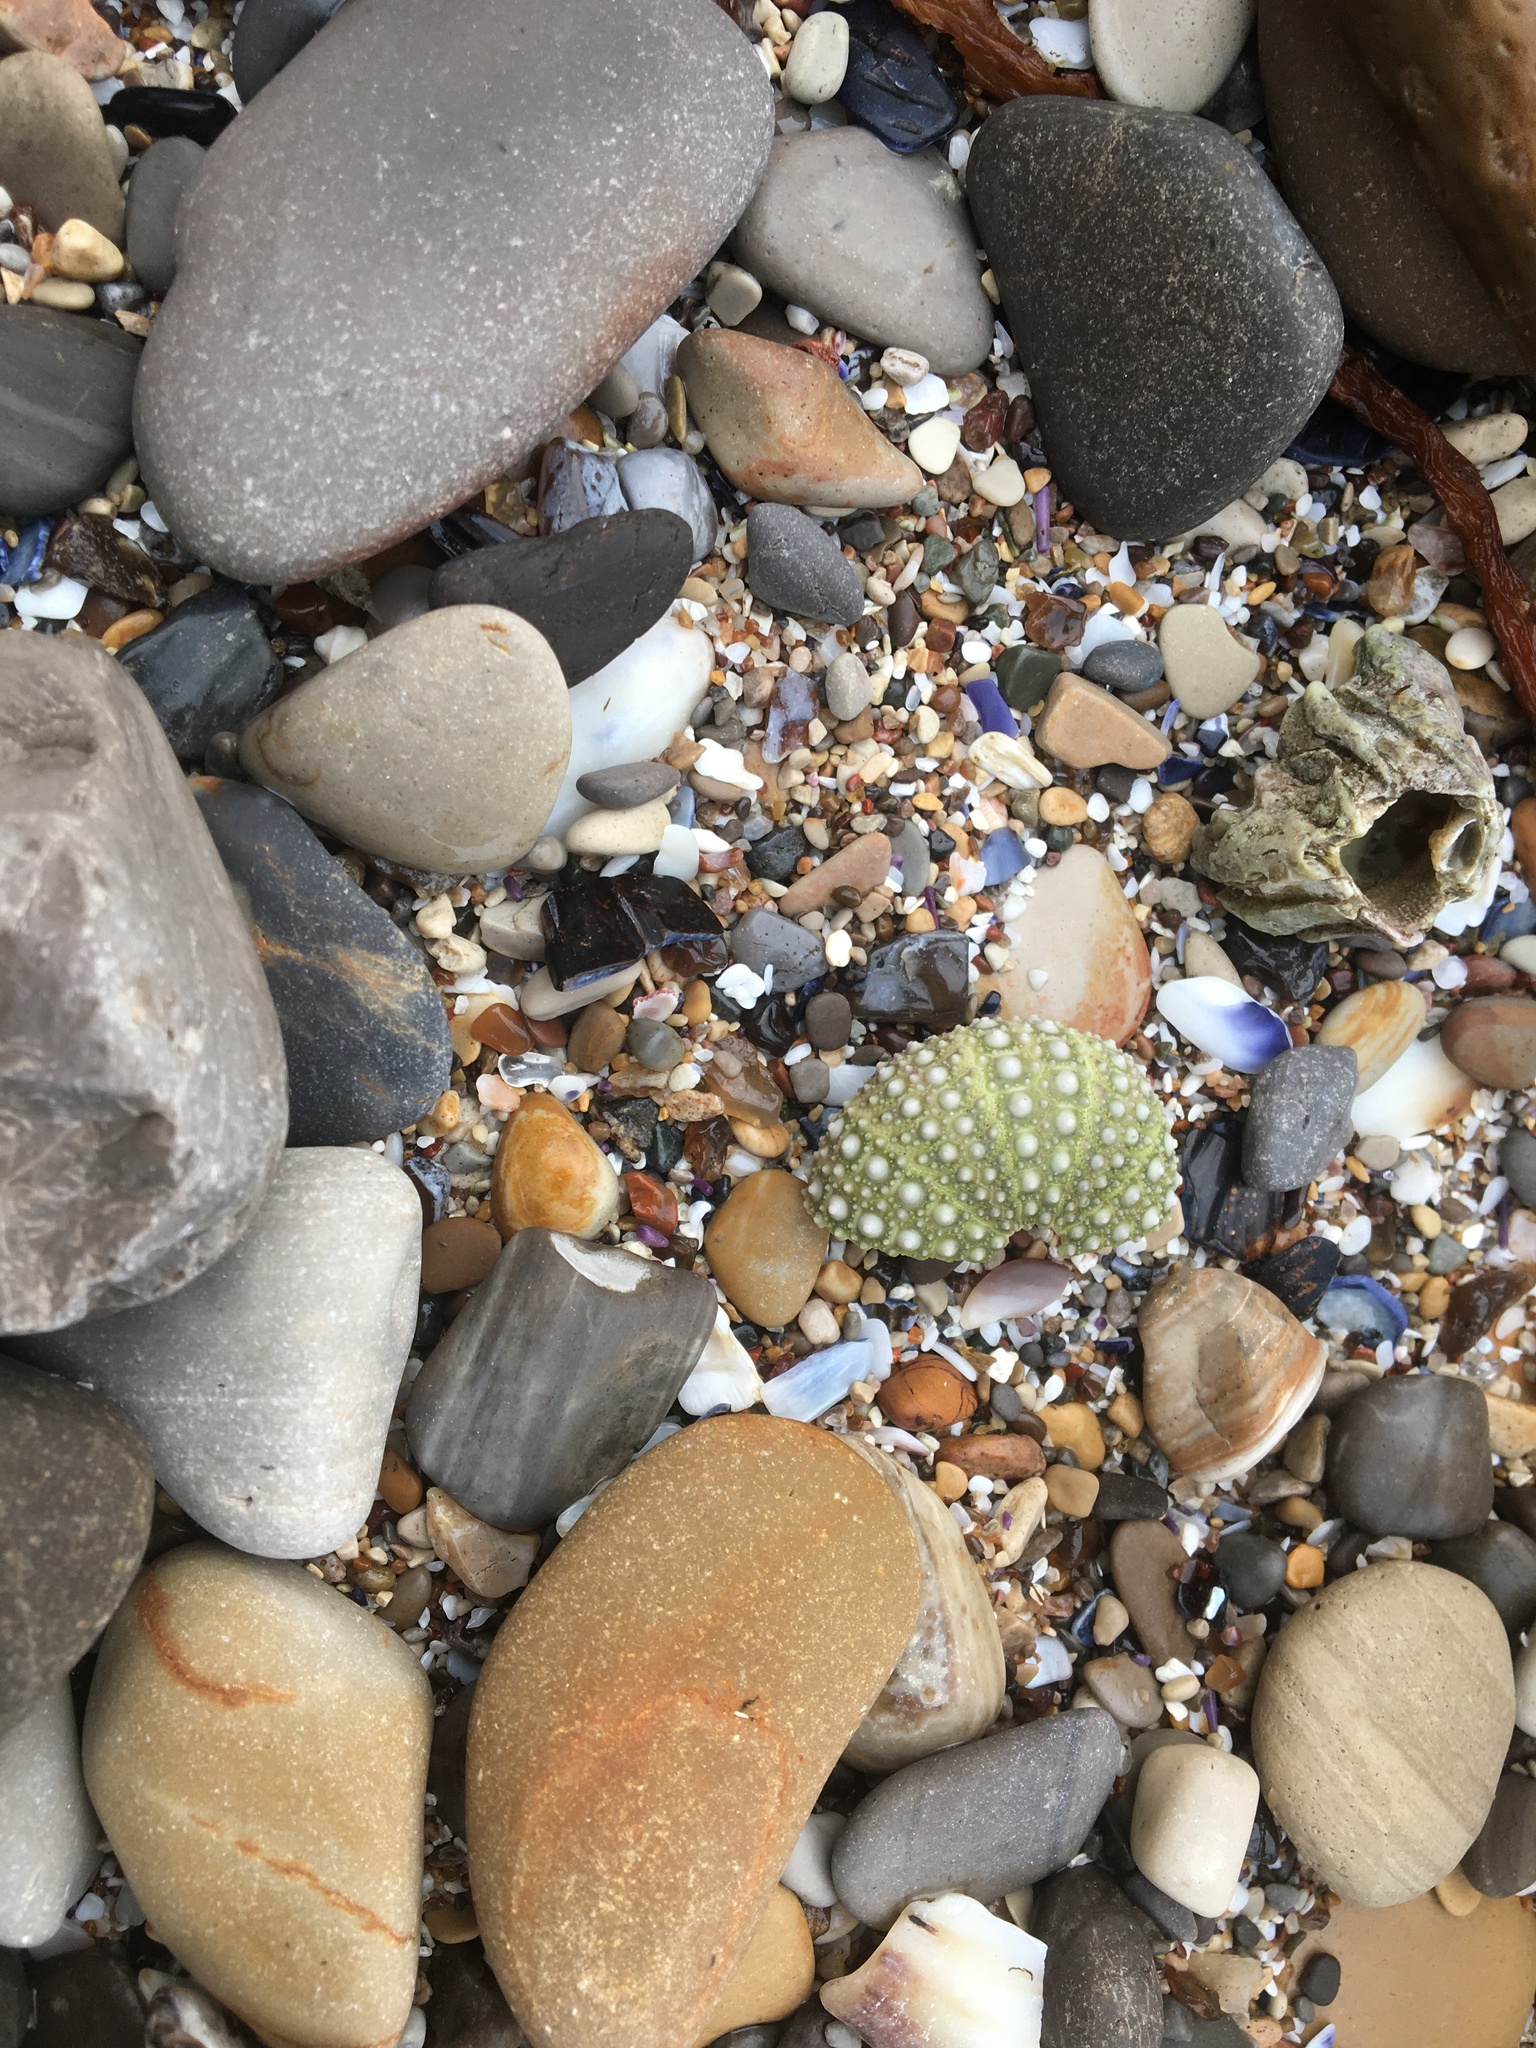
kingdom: Animalia
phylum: Echinodermata
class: Echinoidea
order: Camarodonta
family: Strongylocentrotidae
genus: Strongylocentrotus
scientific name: Strongylocentrotus purpuratus
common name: Purple sea urchin
